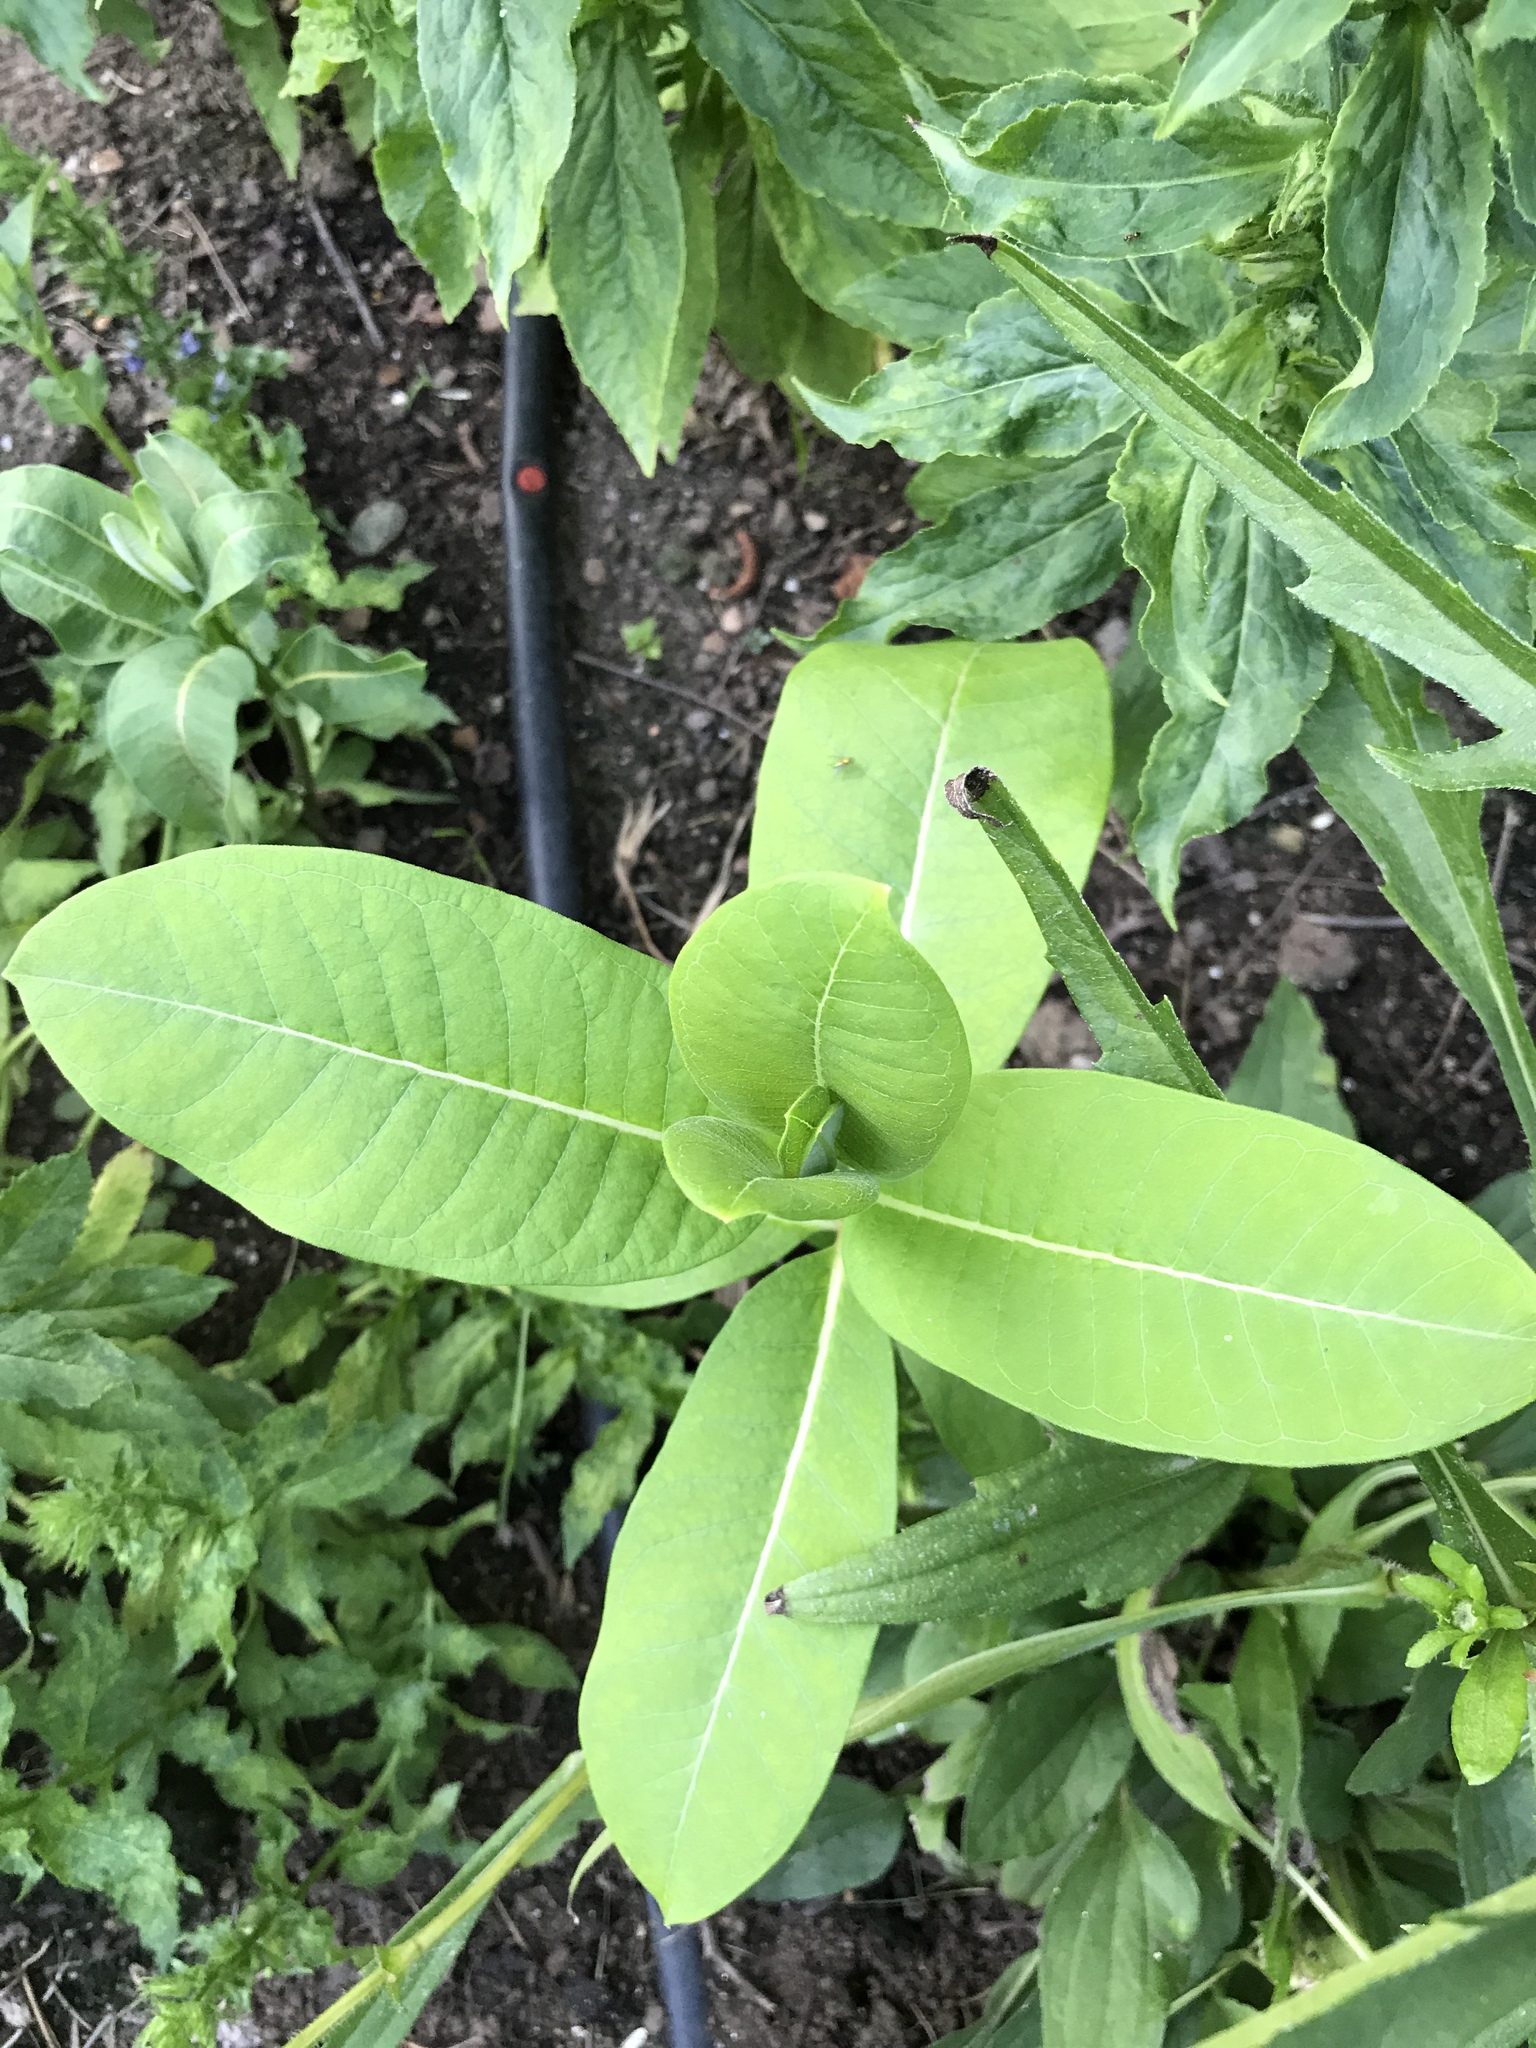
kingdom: Plantae
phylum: Tracheophyta
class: Magnoliopsida
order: Gentianales
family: Apocynaceae
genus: Asclepias
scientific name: Asclepias syriaca
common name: Common milkweed
